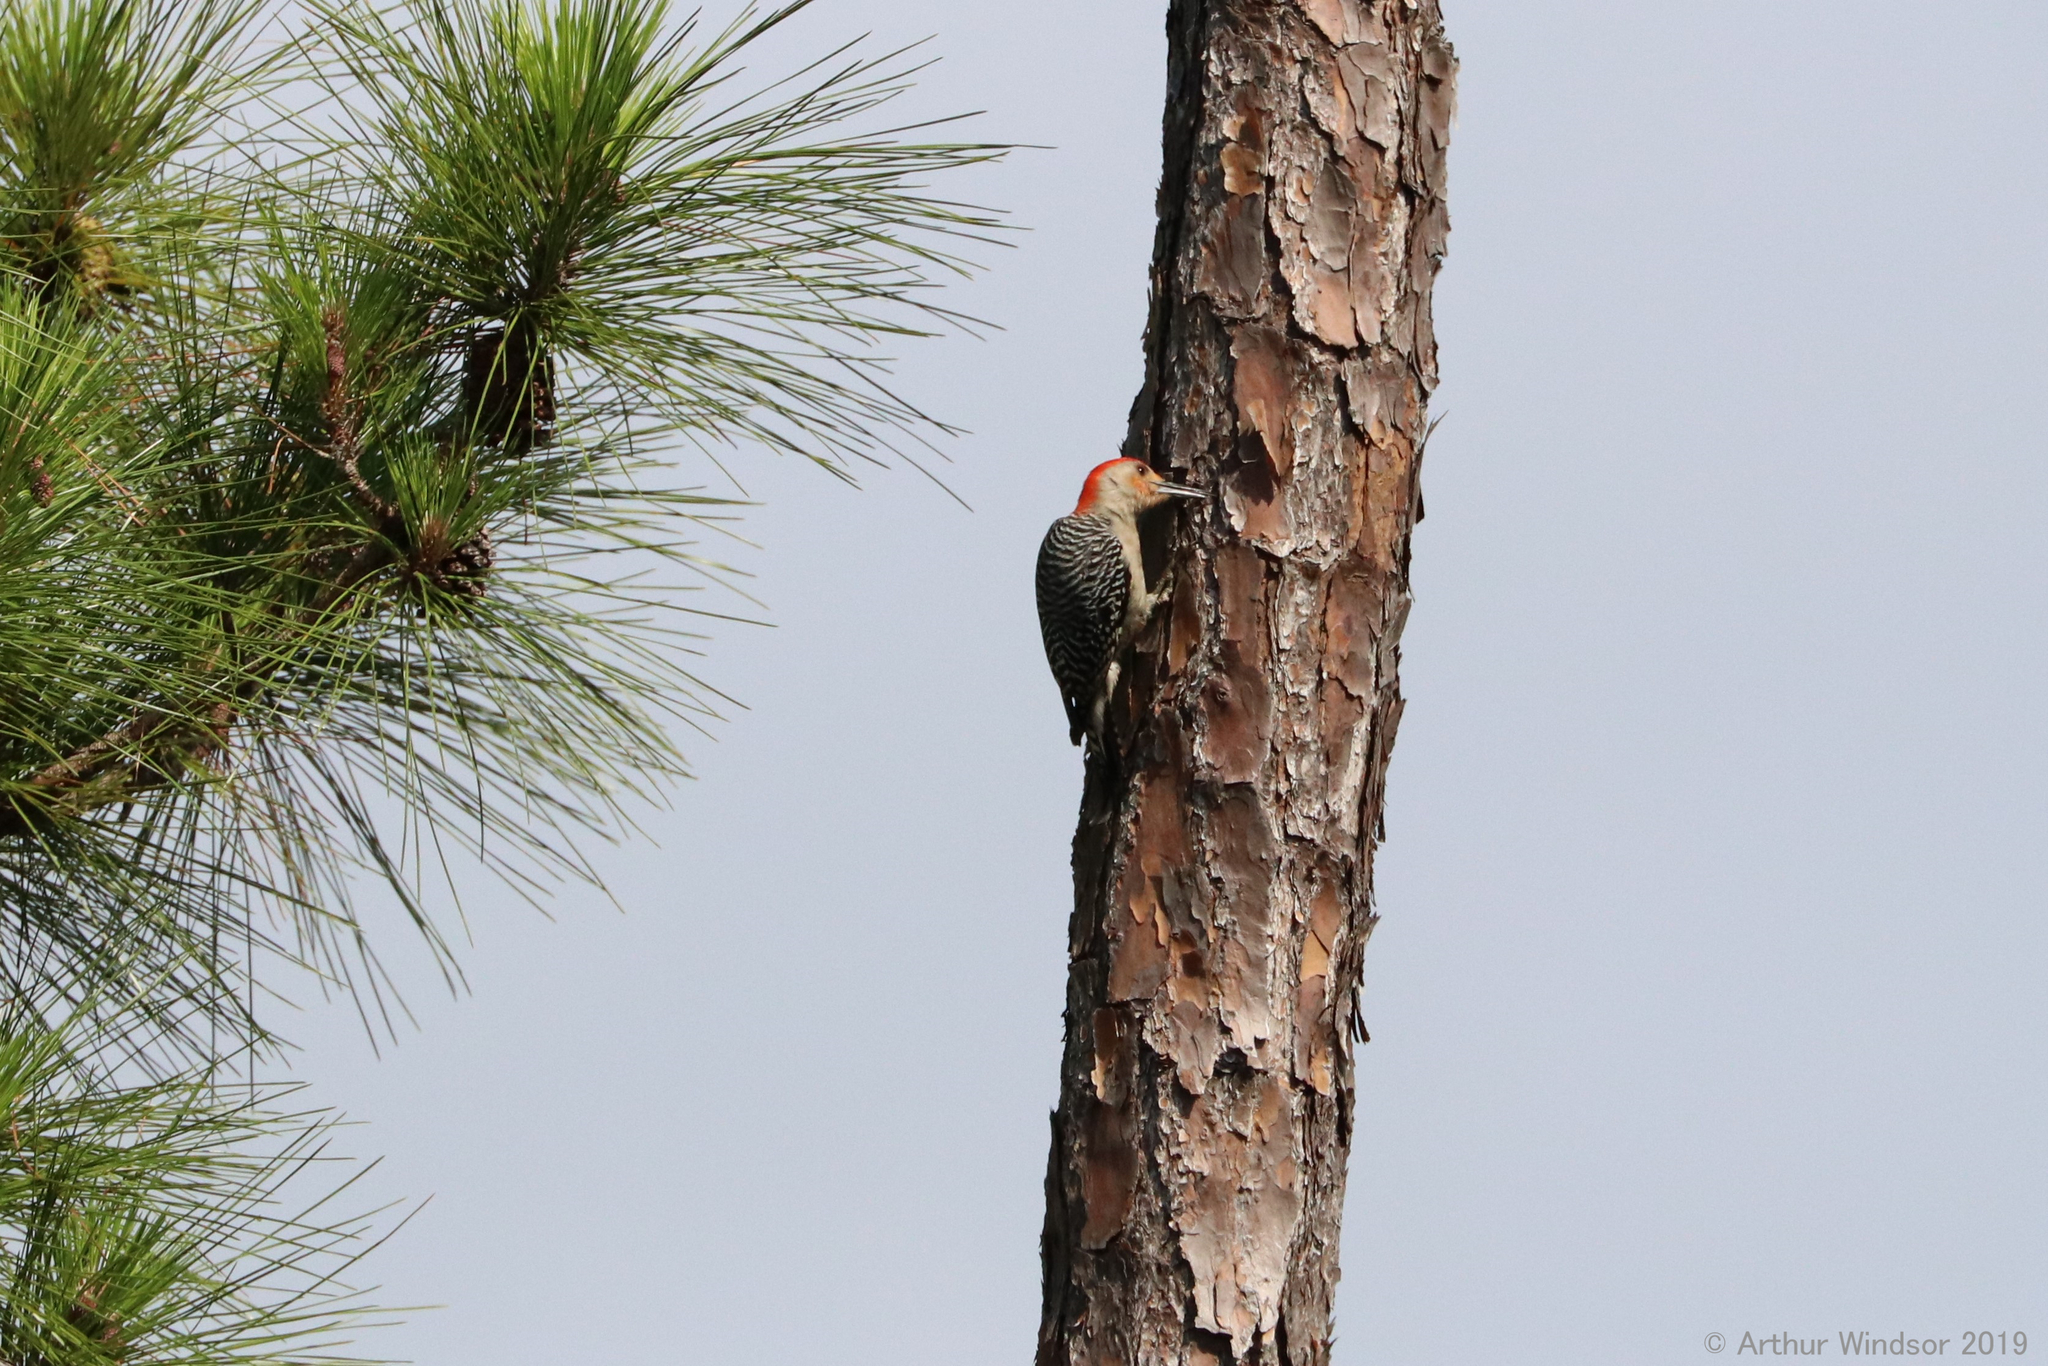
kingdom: Animalia
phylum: Chordata
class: Aves
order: Piciformes
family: Picidae
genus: Melanerpes
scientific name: Melanerpes carolinus
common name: Red-bellied woodpecker
